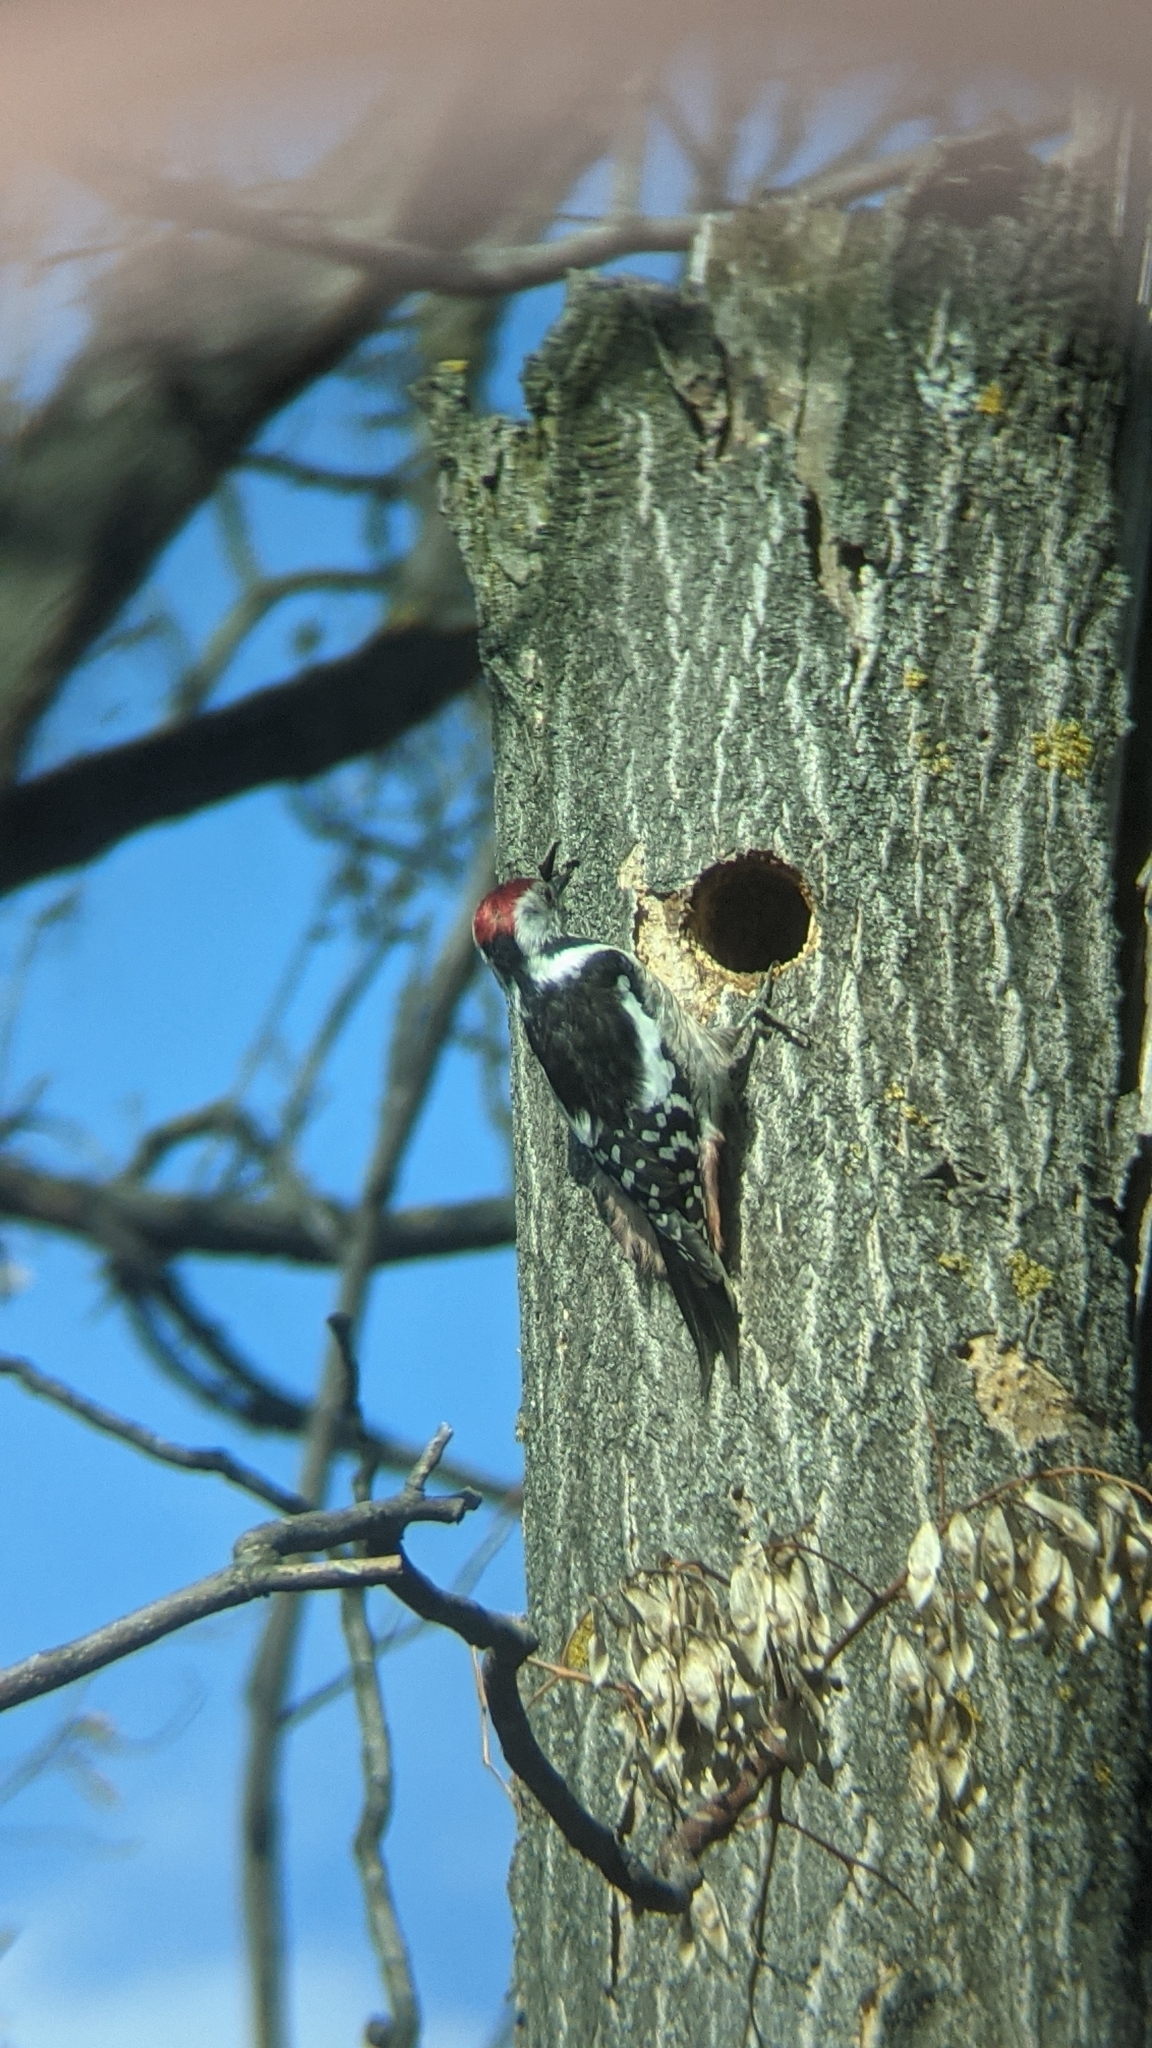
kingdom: Animalia
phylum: Chordata
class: Aves
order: Piciformes
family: Picidae
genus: Dendrocoptes
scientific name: Dendrocoptes medius
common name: Middle spotted woodpecker
